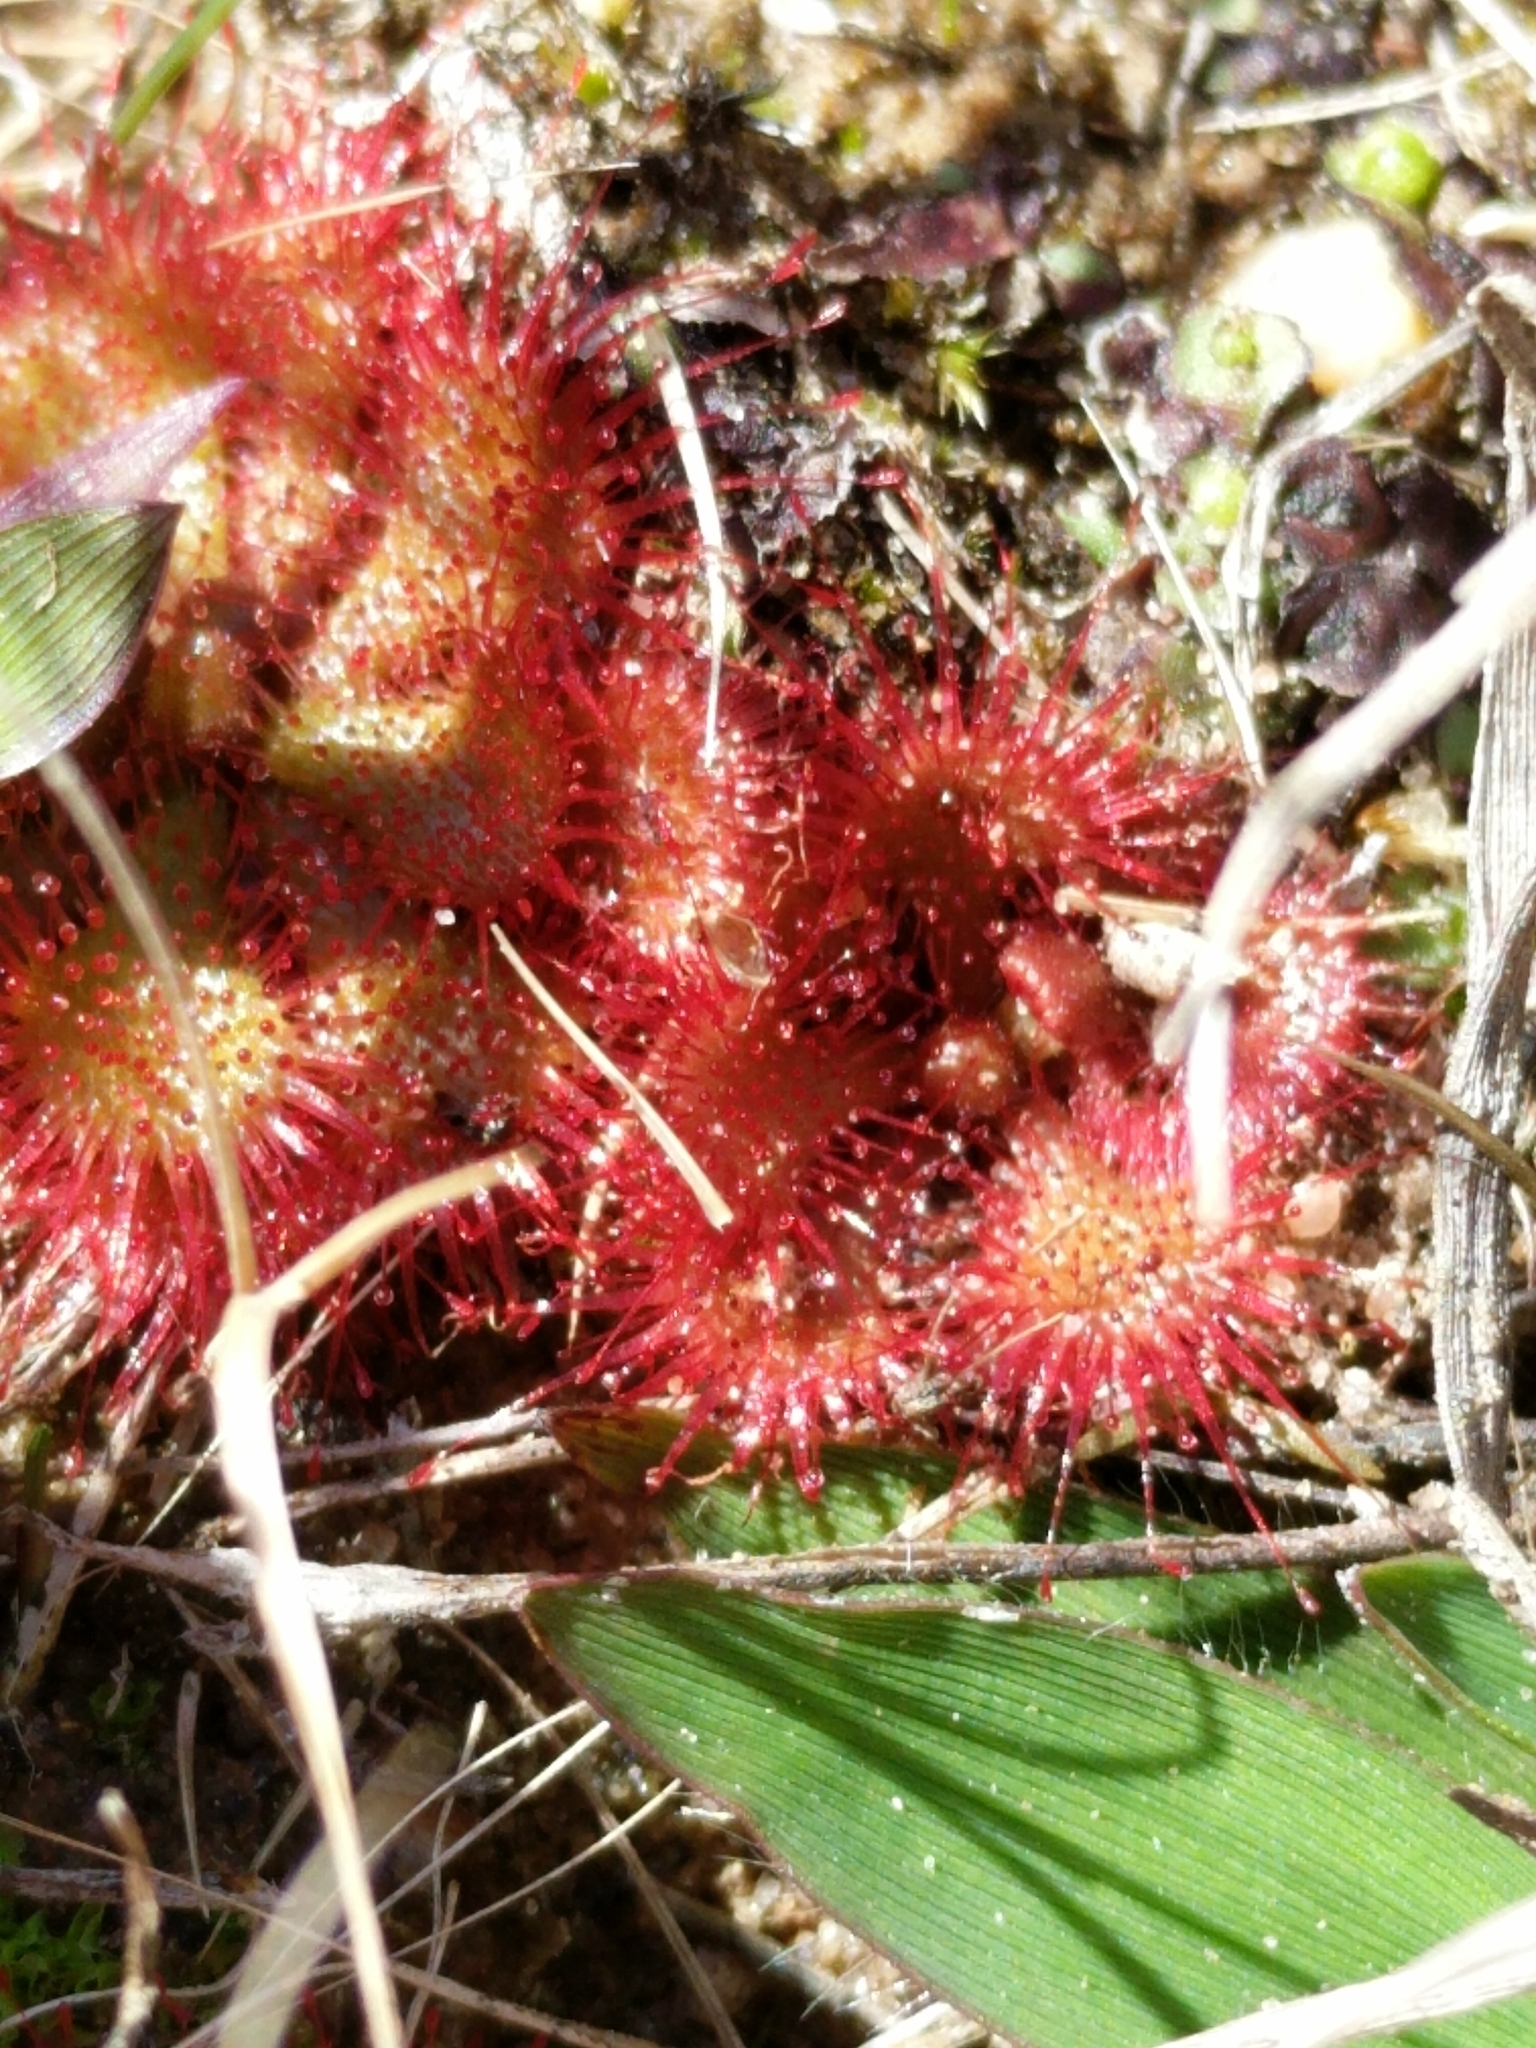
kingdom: Plantae
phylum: Tracheophyta
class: Magnoliopsida
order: Caryophyllales
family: Droseraceae
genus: Drosera
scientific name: Drosera brevifolia
